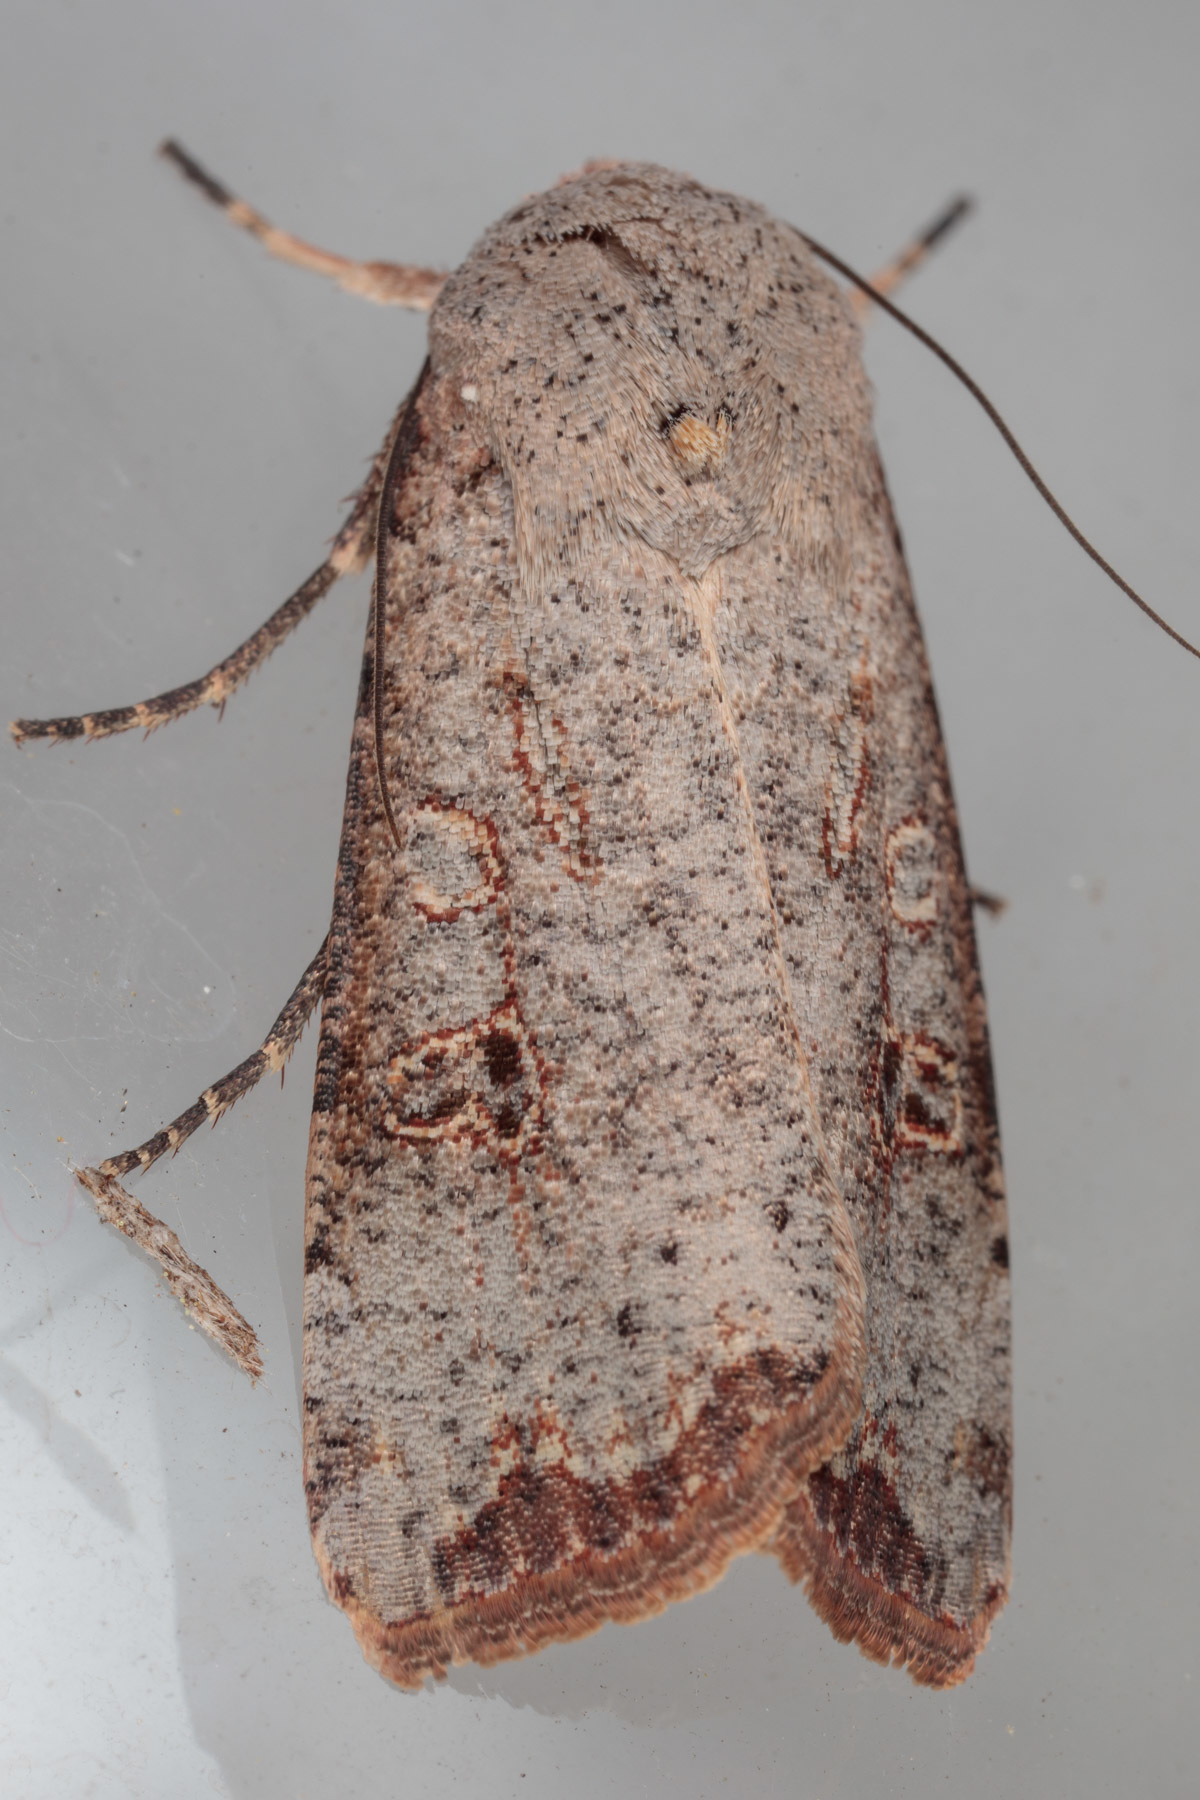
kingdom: Animalia
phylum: Arthropoda
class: Insecta
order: Lepidoptera
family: Noctuidae
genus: Anicla
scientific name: Anicla infecta
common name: Green cutworm
